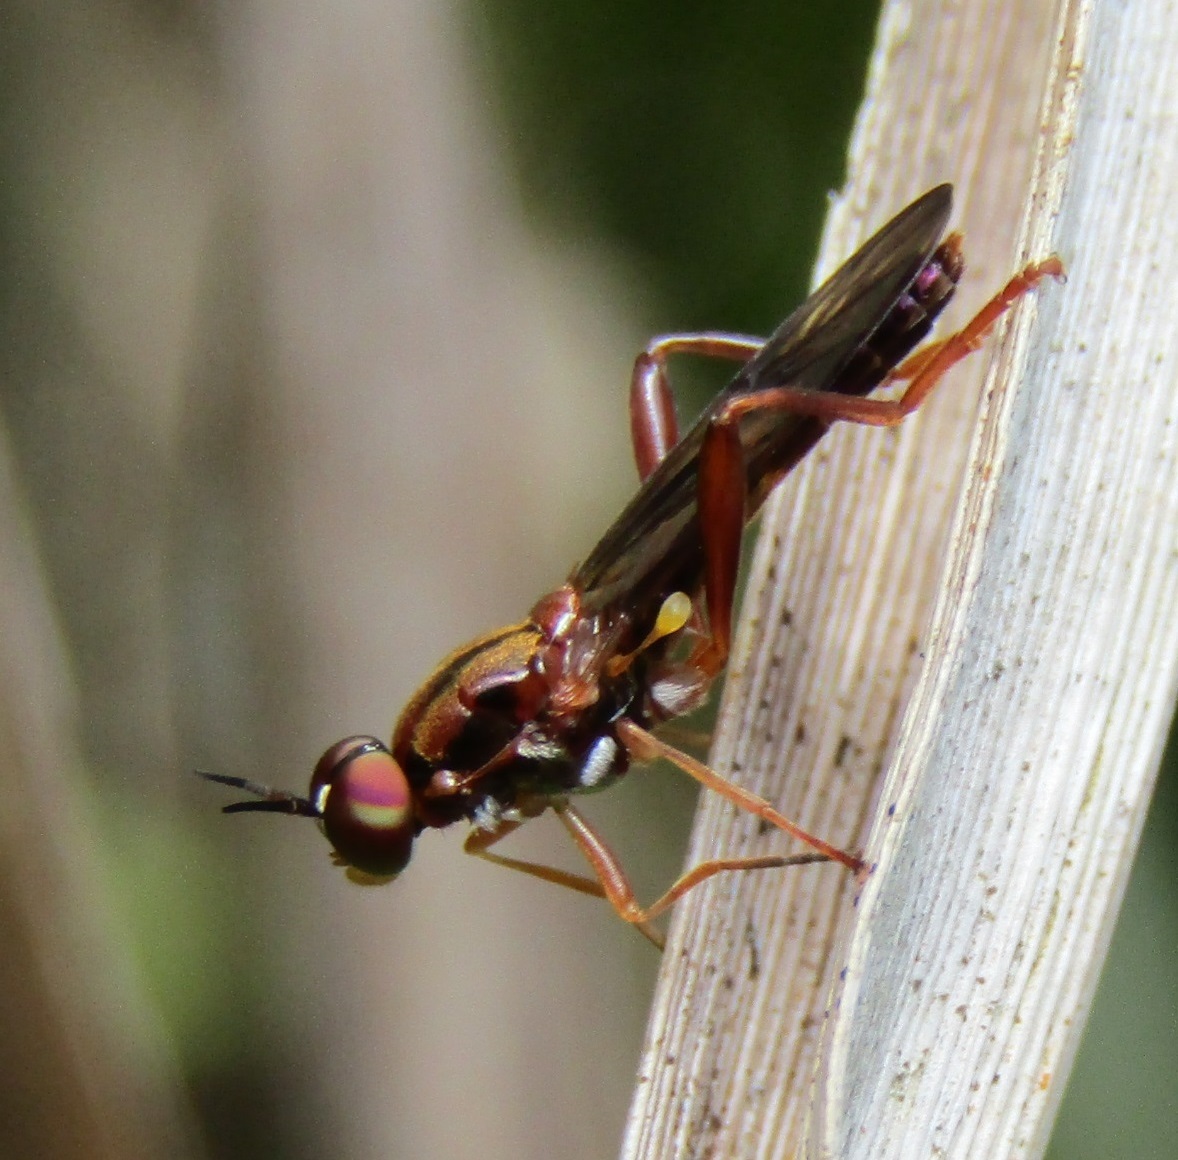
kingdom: Animalia
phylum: Arthropoda
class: Insecta
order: Diptera
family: Stratiomyidae
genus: Benhamyia
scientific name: Benhamyia straznitzkii
